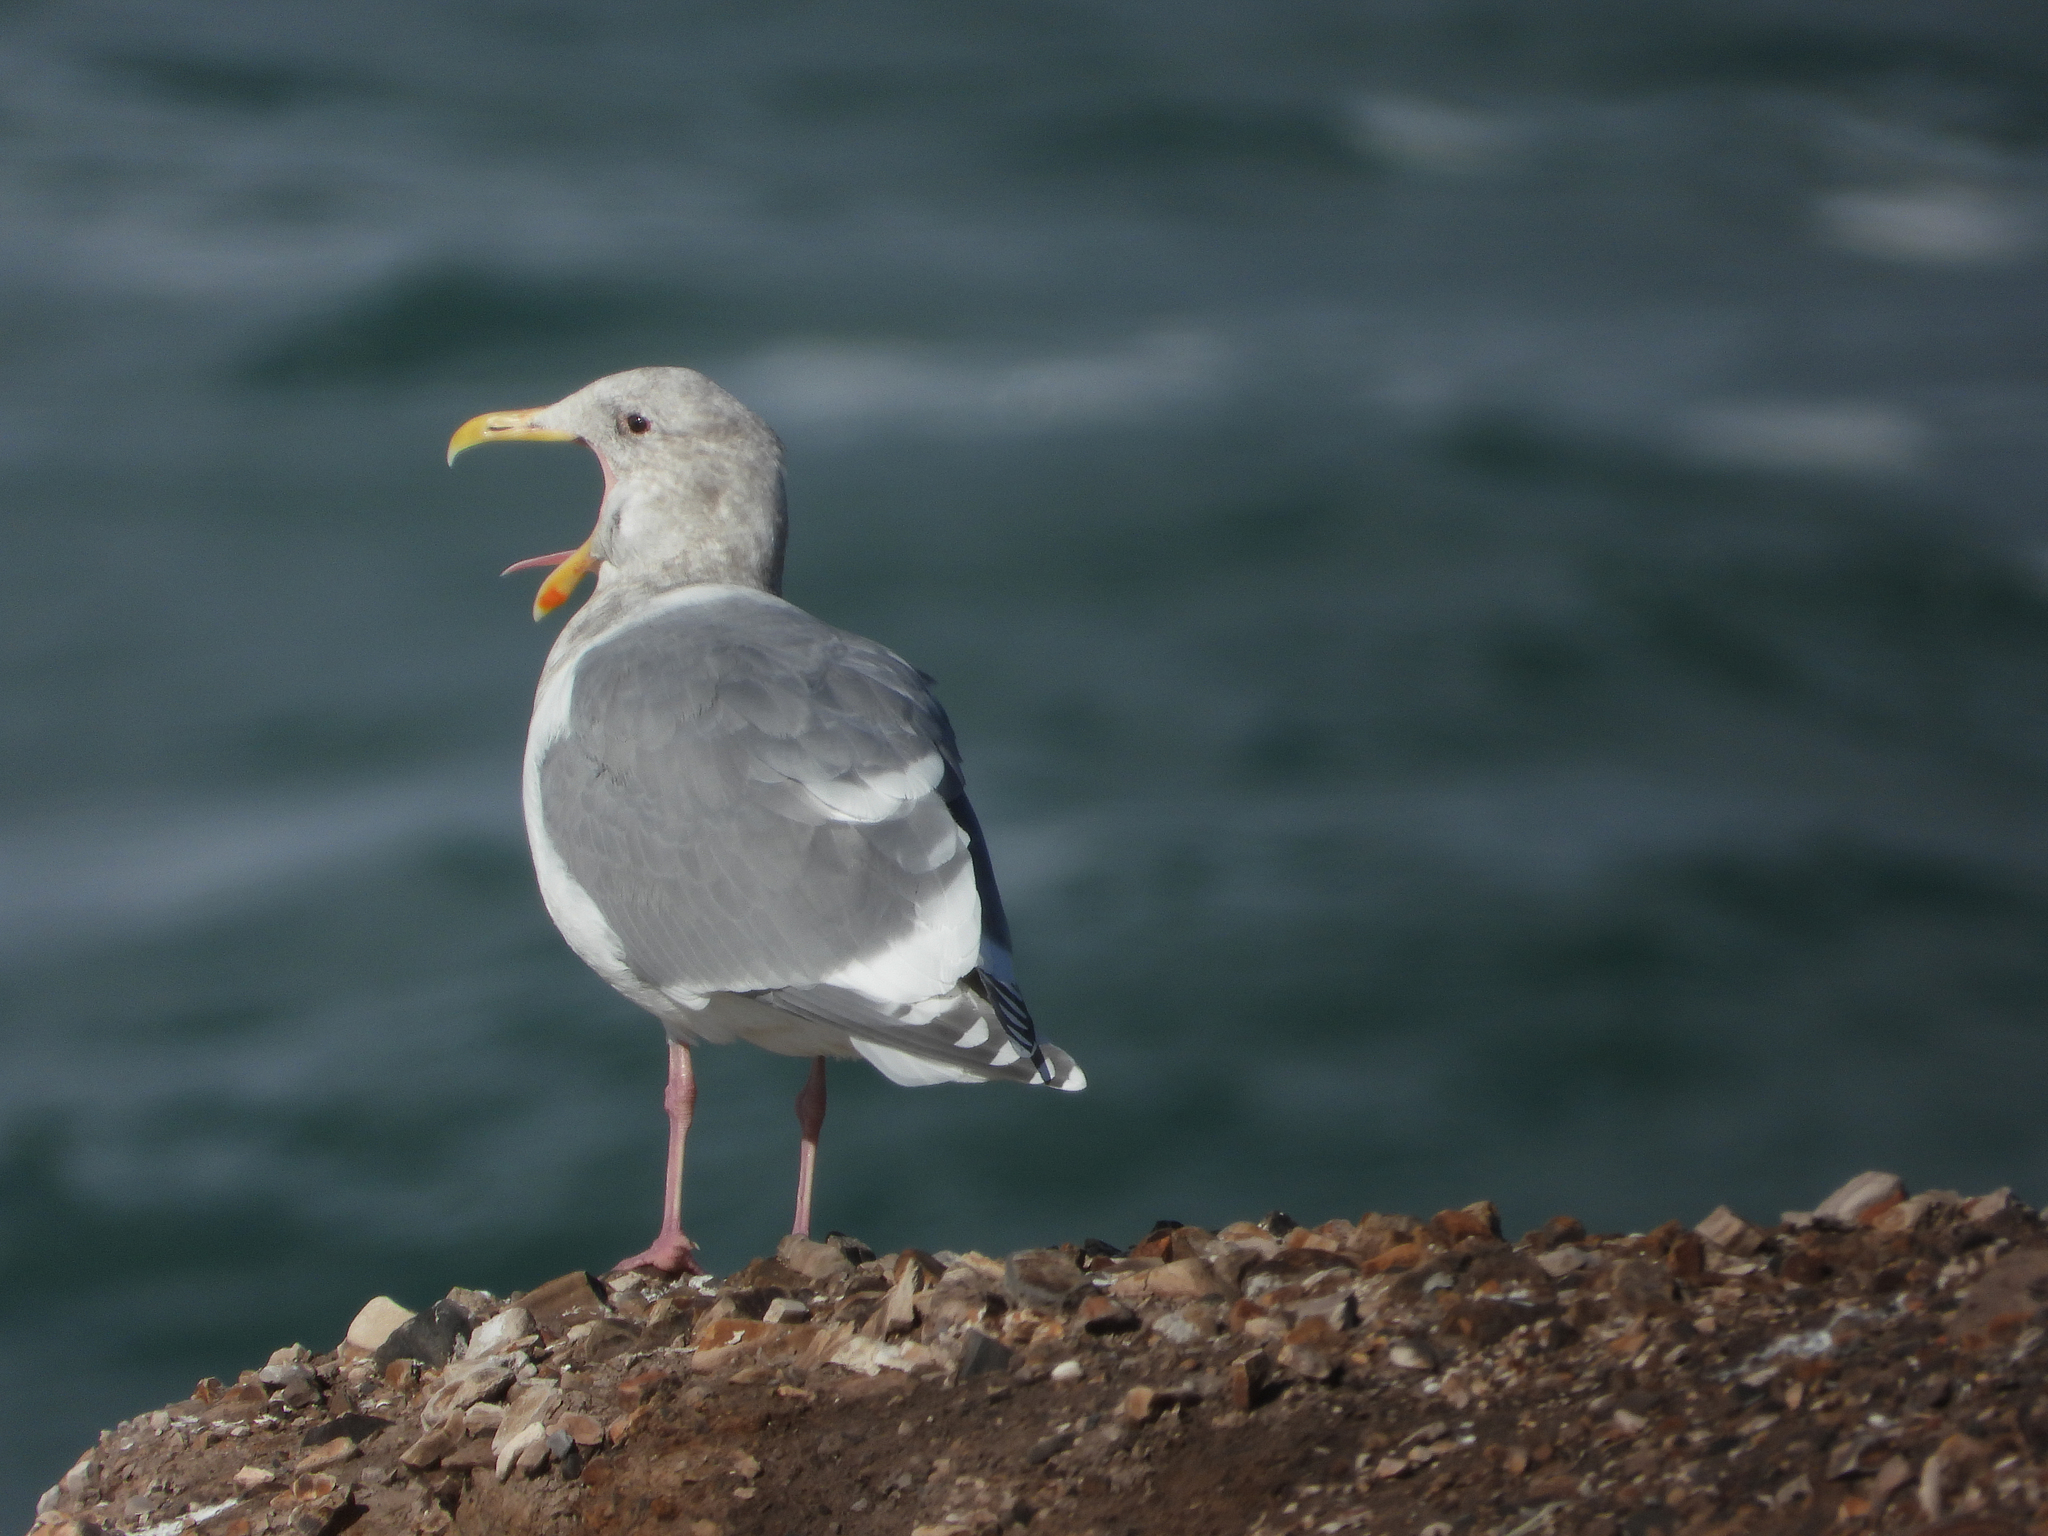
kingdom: Animalia
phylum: Chordata
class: Aves
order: Charadriiformes
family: Laridae
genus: Larus
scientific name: Larus
